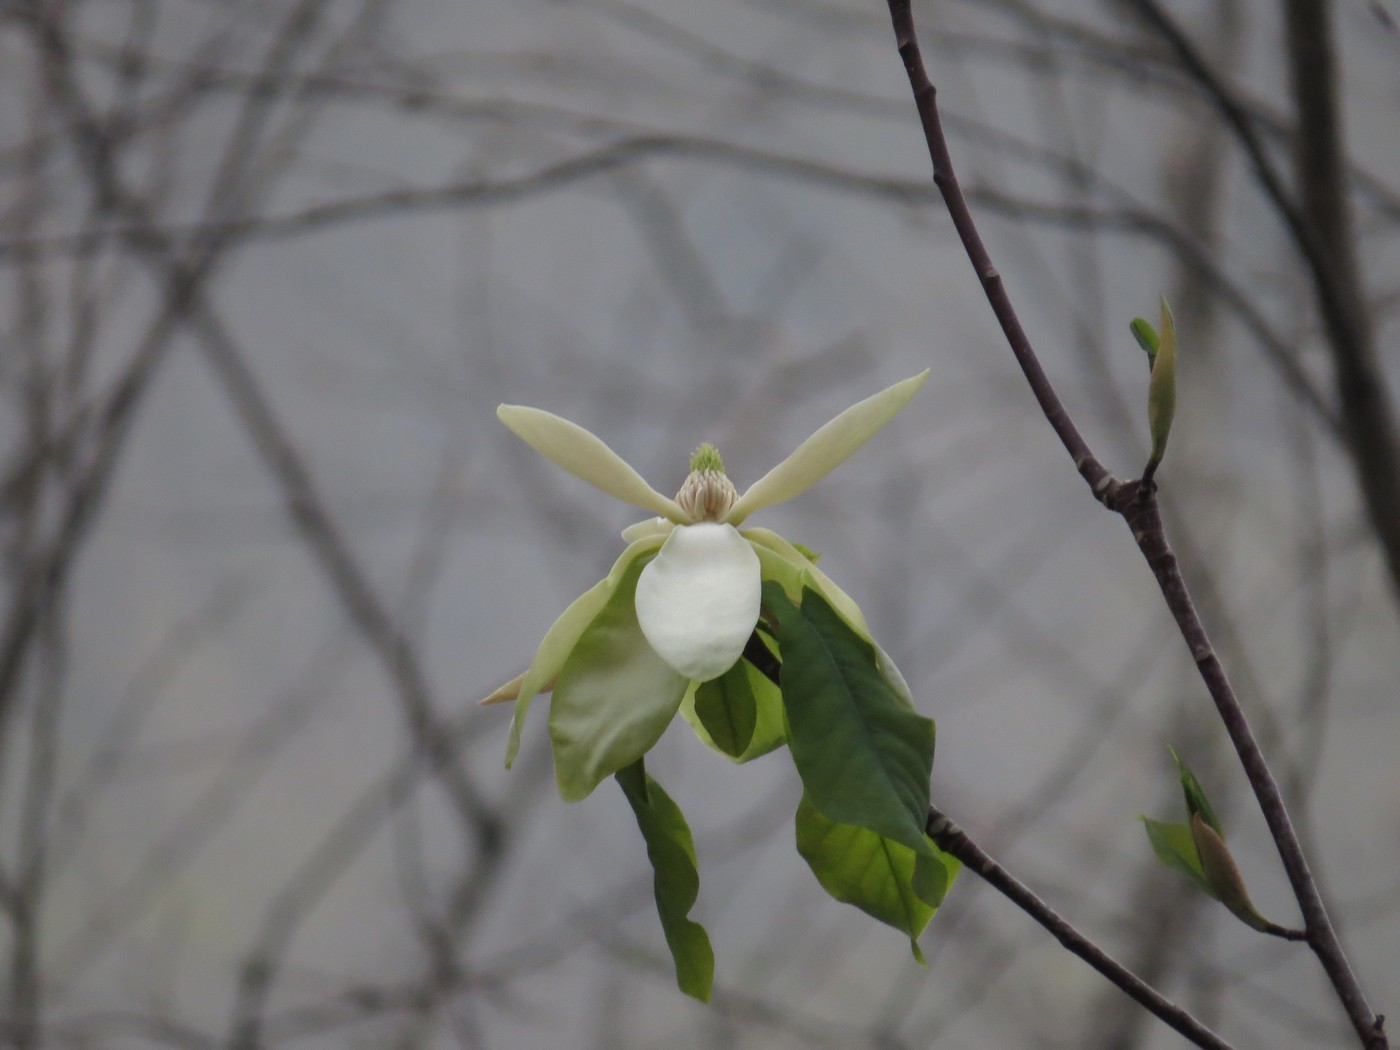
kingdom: Plantae
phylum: Tracheophyta
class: Magnoliopsida
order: Magnoliales
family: Magnoliaceae
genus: Magnolia
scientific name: Magnolia fraseri
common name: Fraser's magnolia
